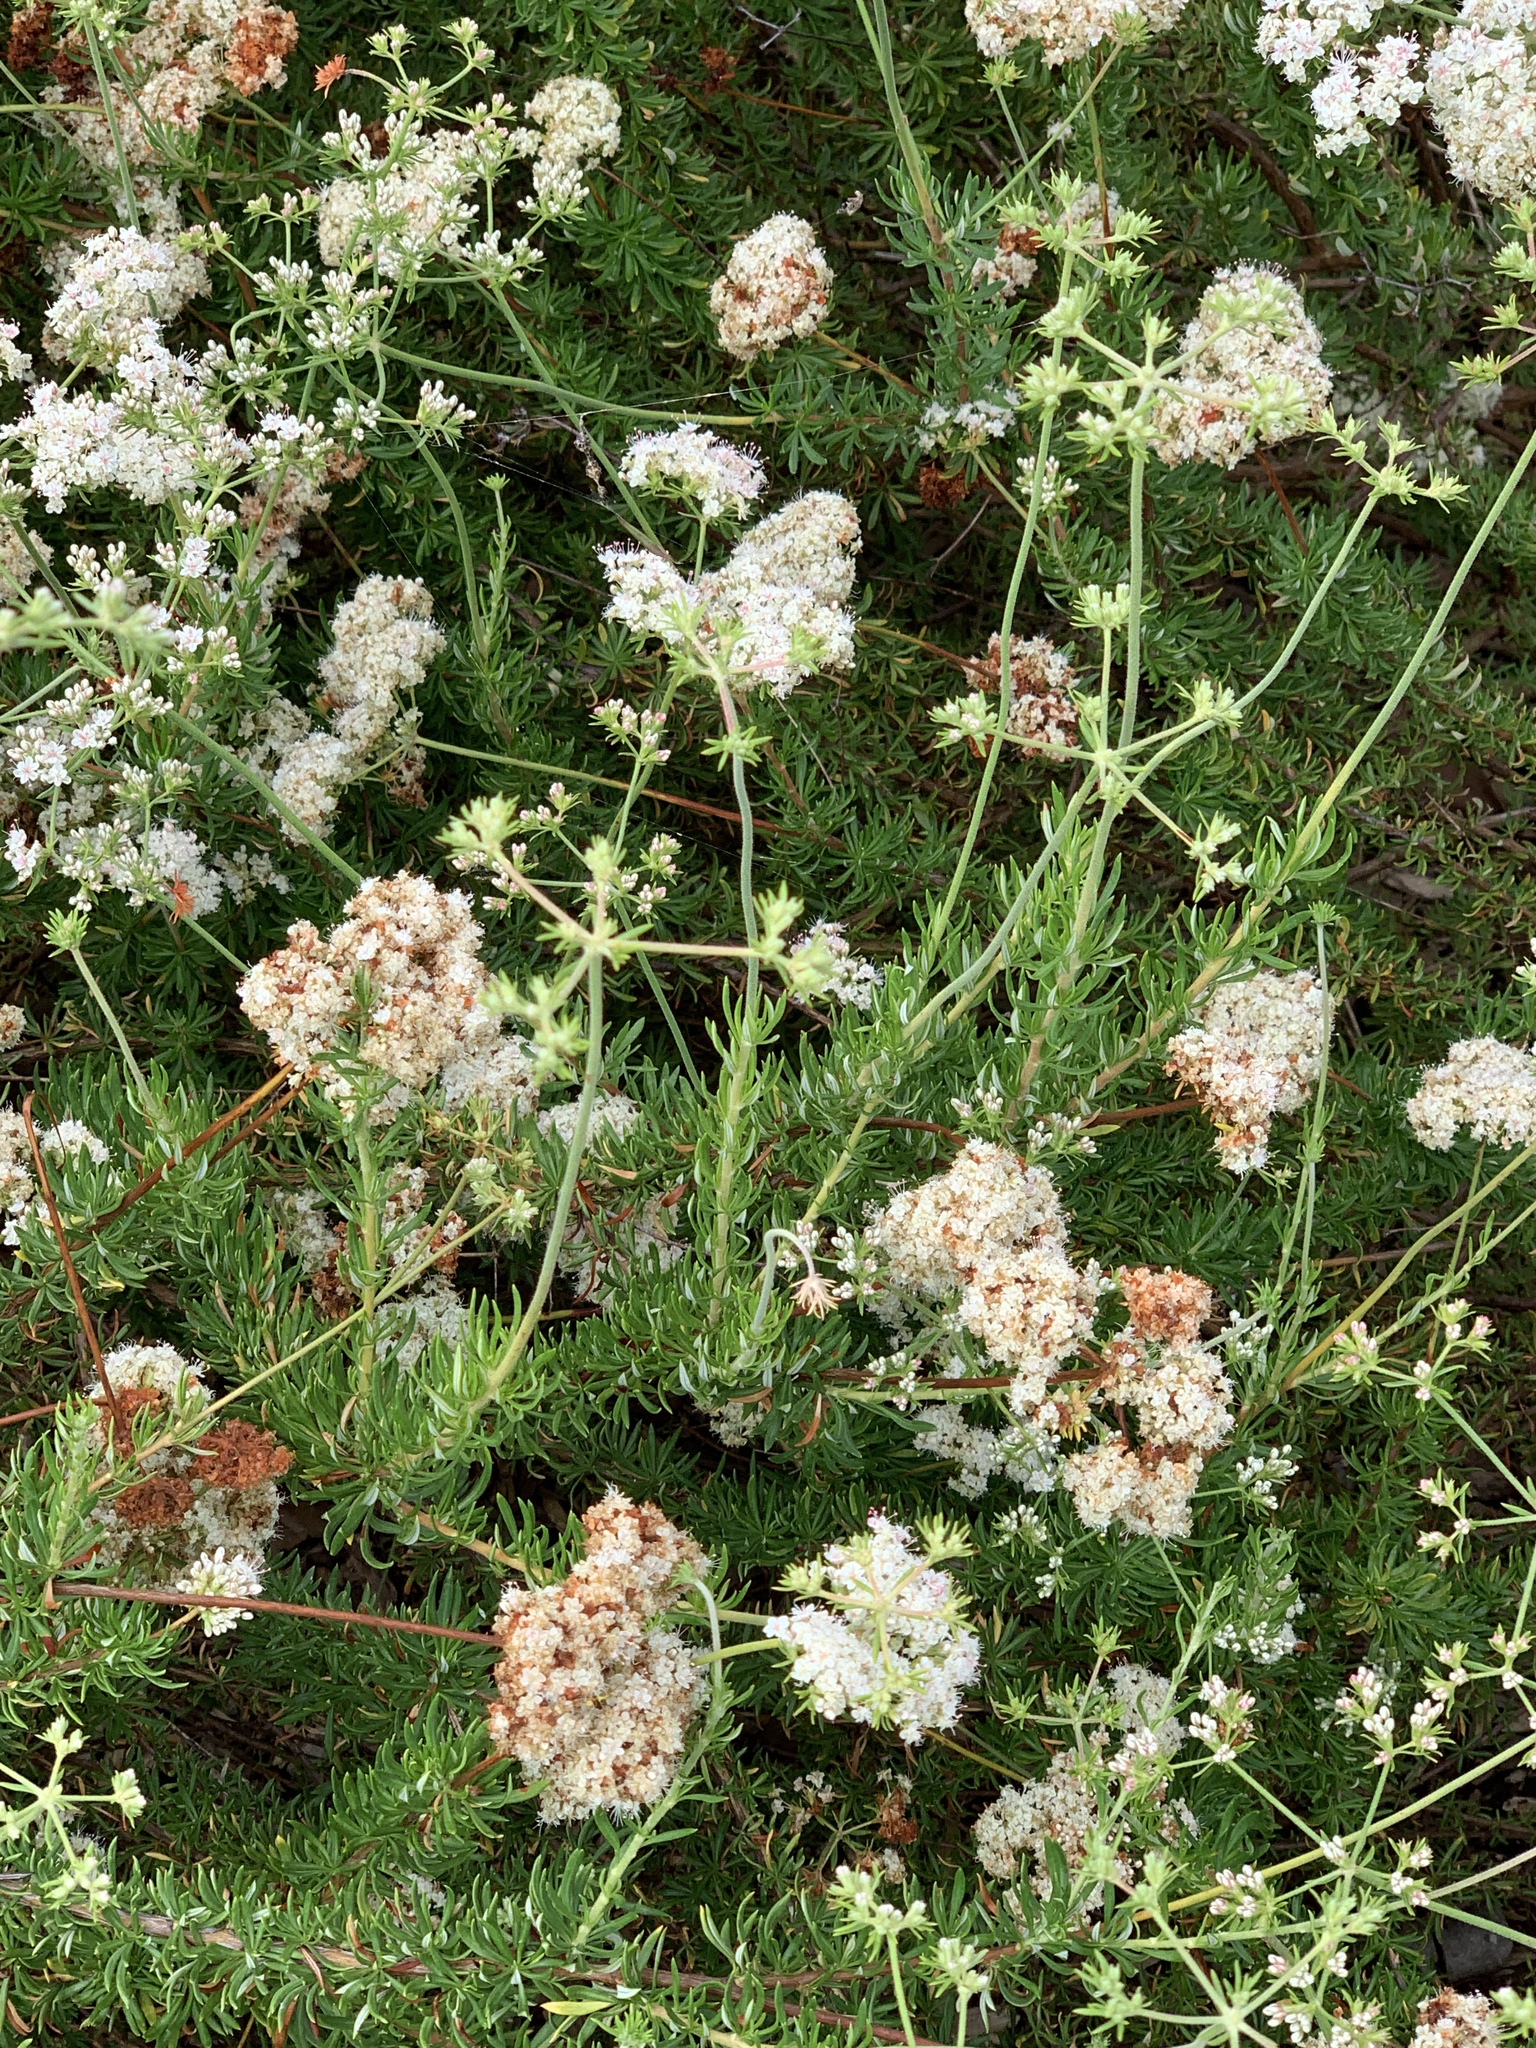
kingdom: Plantae
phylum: Tracheophyta
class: Magnoliopsida
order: Caryophyllales
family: Polygonaceae
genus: Eriogonum
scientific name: Eriogonum fasciculatum
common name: California wild buckwheat
